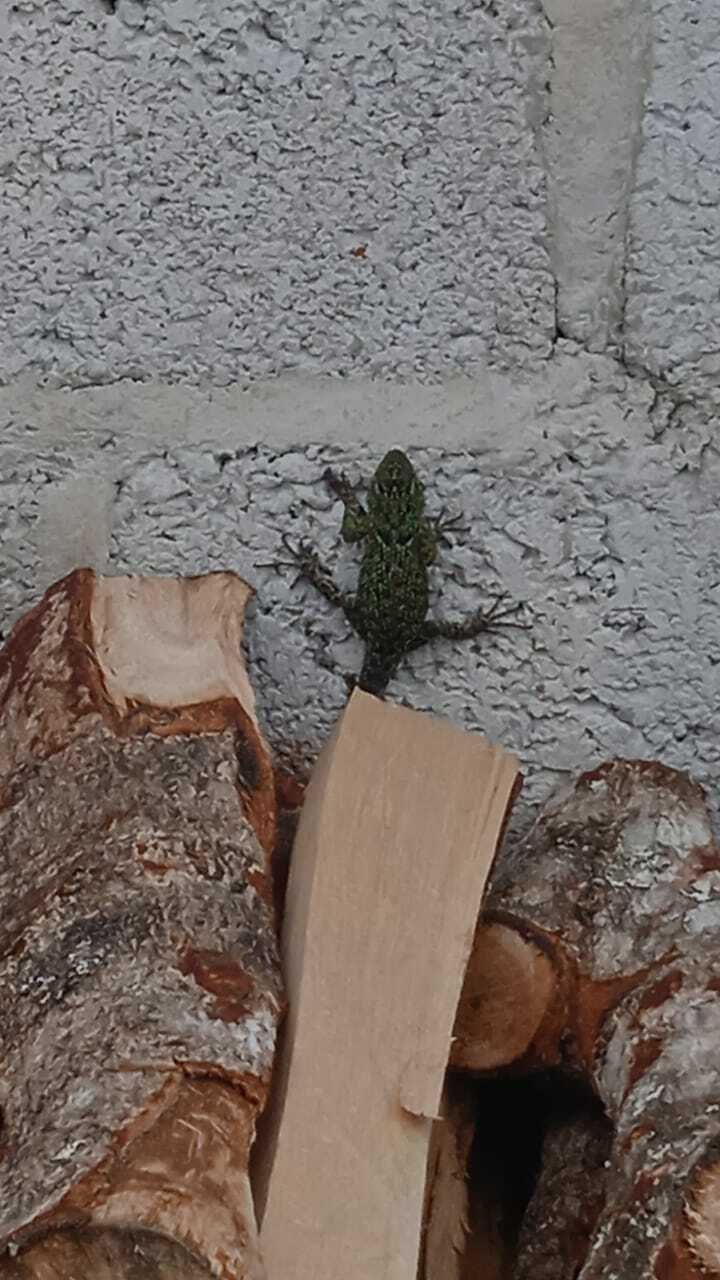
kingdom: Animalia
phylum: Chordata
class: Squamata
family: Phrynosomatidae
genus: Sceloporus
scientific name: Sceloporus taeniocnemis
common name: Guatemalan emerald spiny lizard
